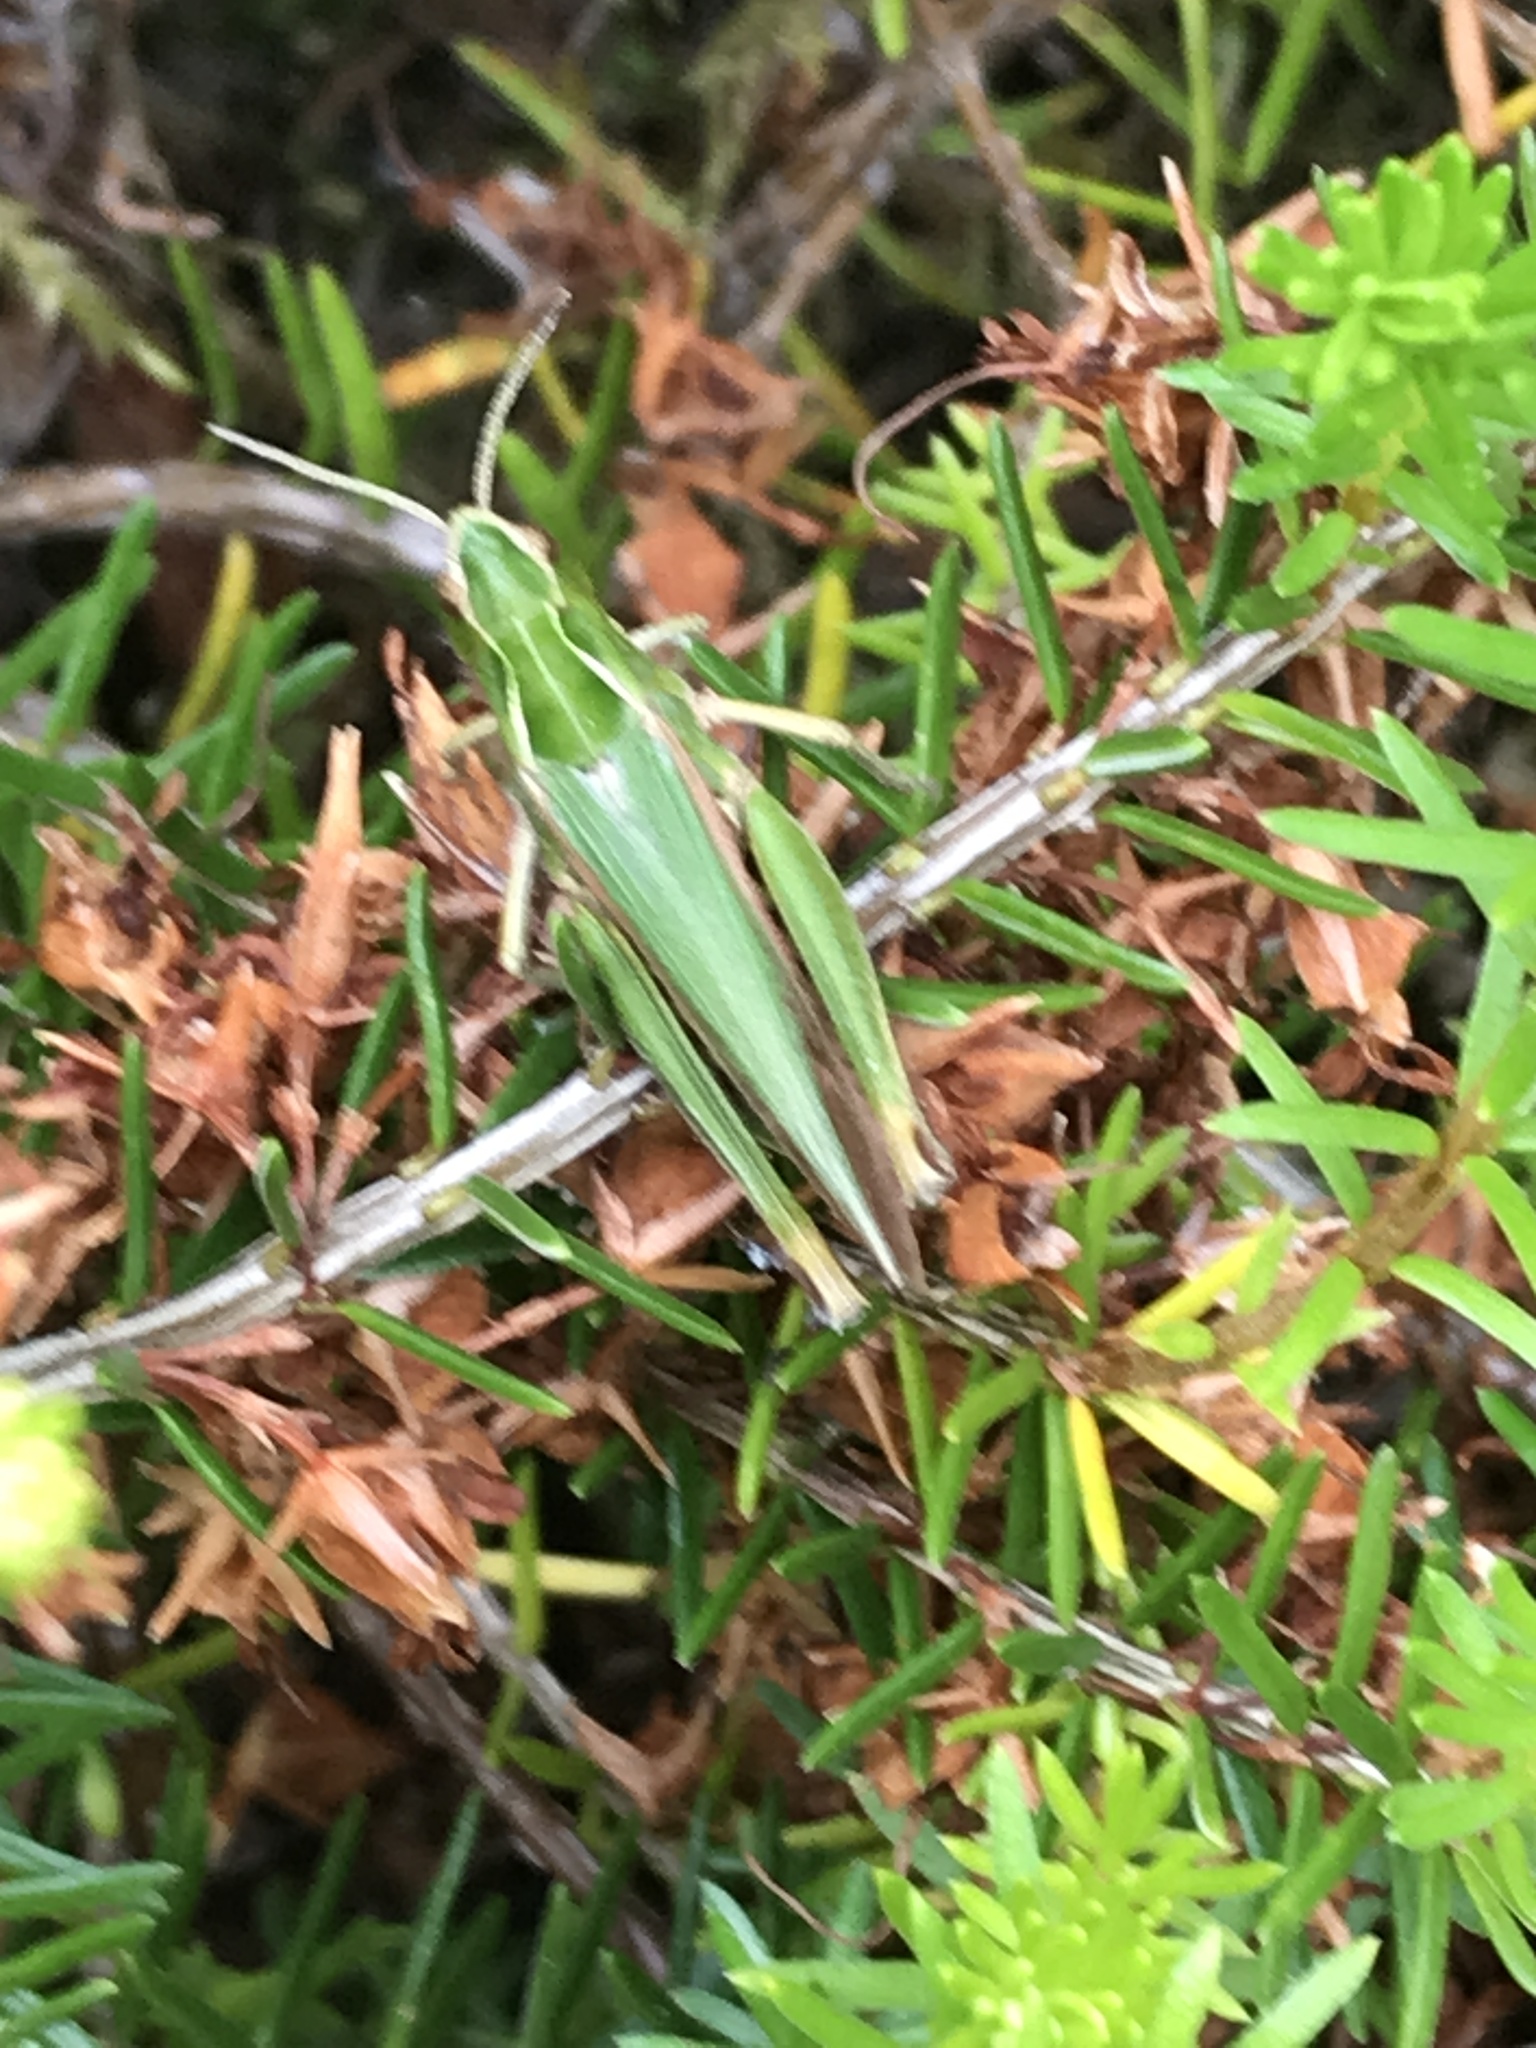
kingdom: Animalia
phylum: Arthropoda
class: Insecta
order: Orthoptera
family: Acrididae
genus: Omocestus
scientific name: Omocestus viridulus
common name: Common green grasshopper
